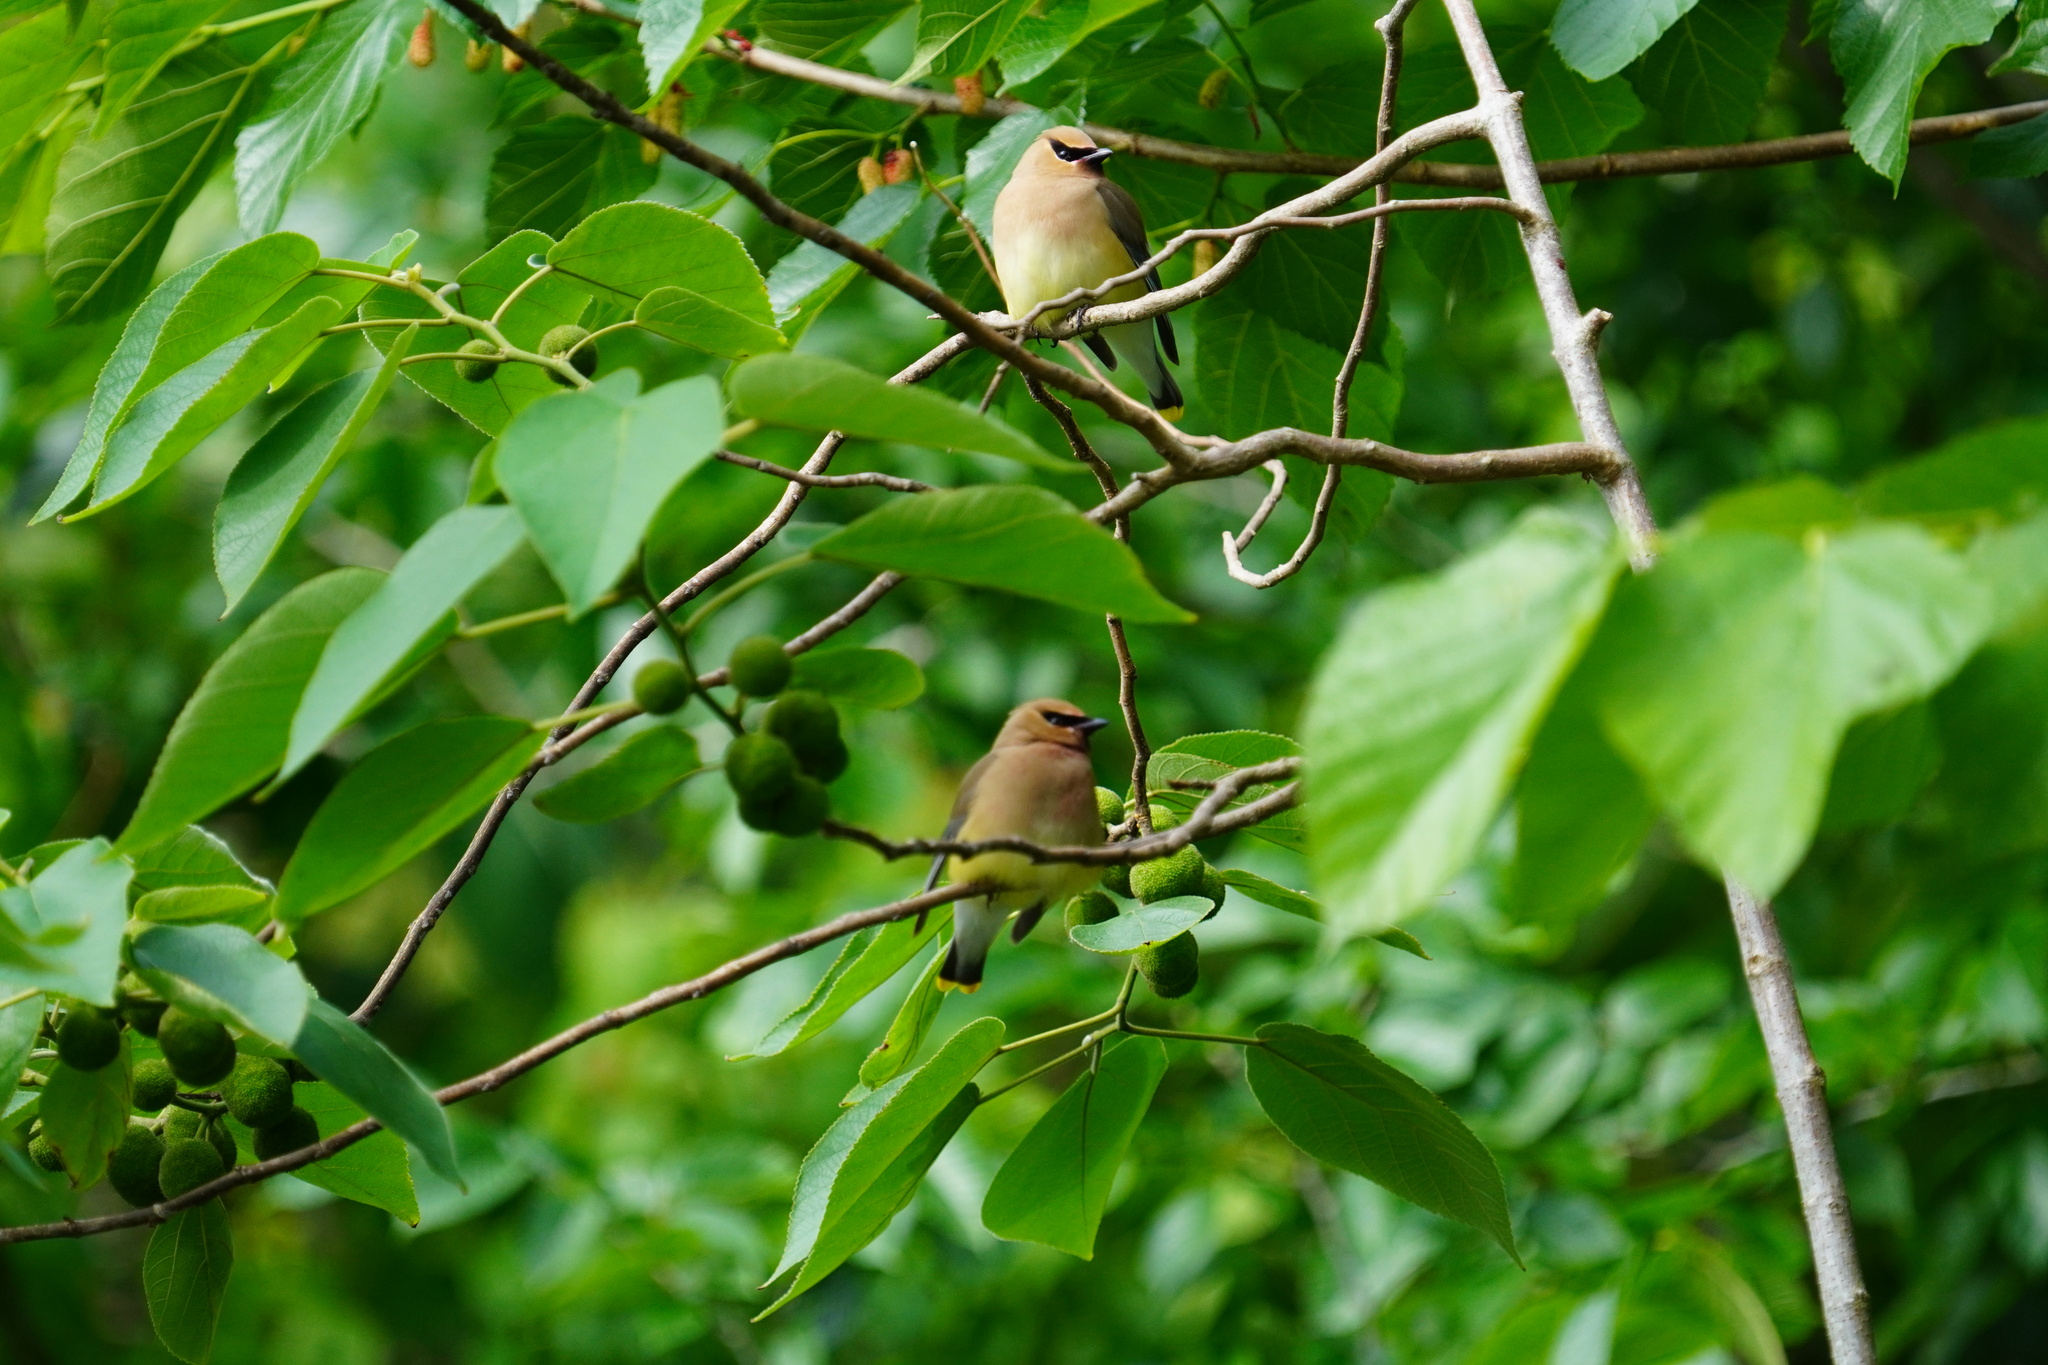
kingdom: Animalia
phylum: Chordata
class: Aves
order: Passeriformes
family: Bombycillidae
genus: Bombycilla
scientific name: Bombycilla cedrorum
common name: Cedar waxwing
